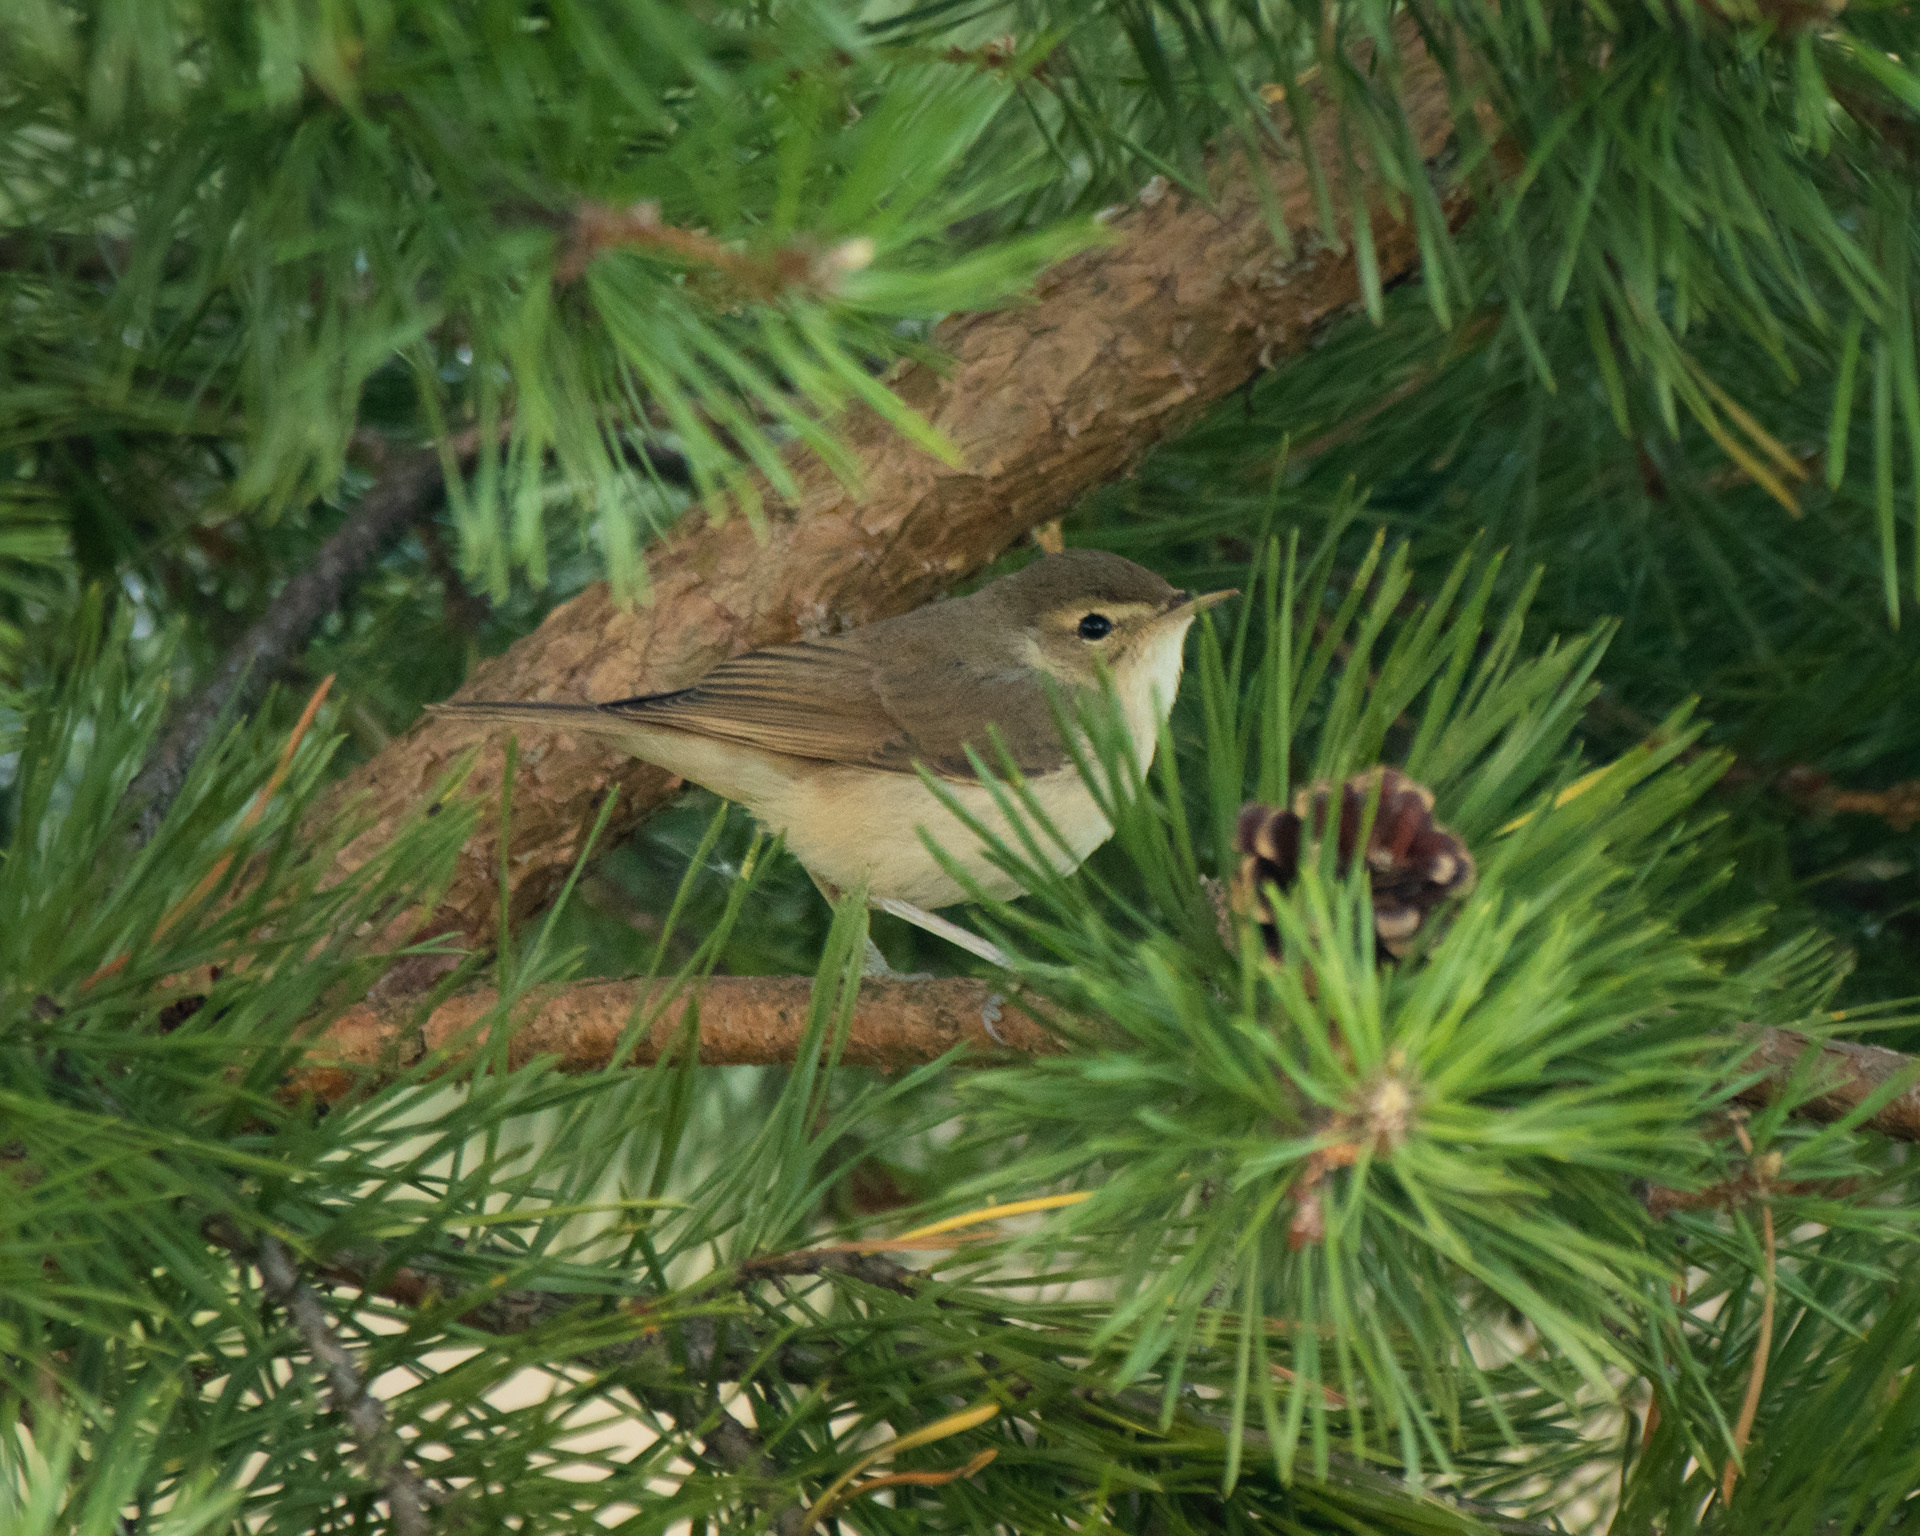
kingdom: Animalia
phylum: Chordata
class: Aves
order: Passeriformes
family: Acrocephalidae
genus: Iduna
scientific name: Iduna caligata
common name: Booted warbler
